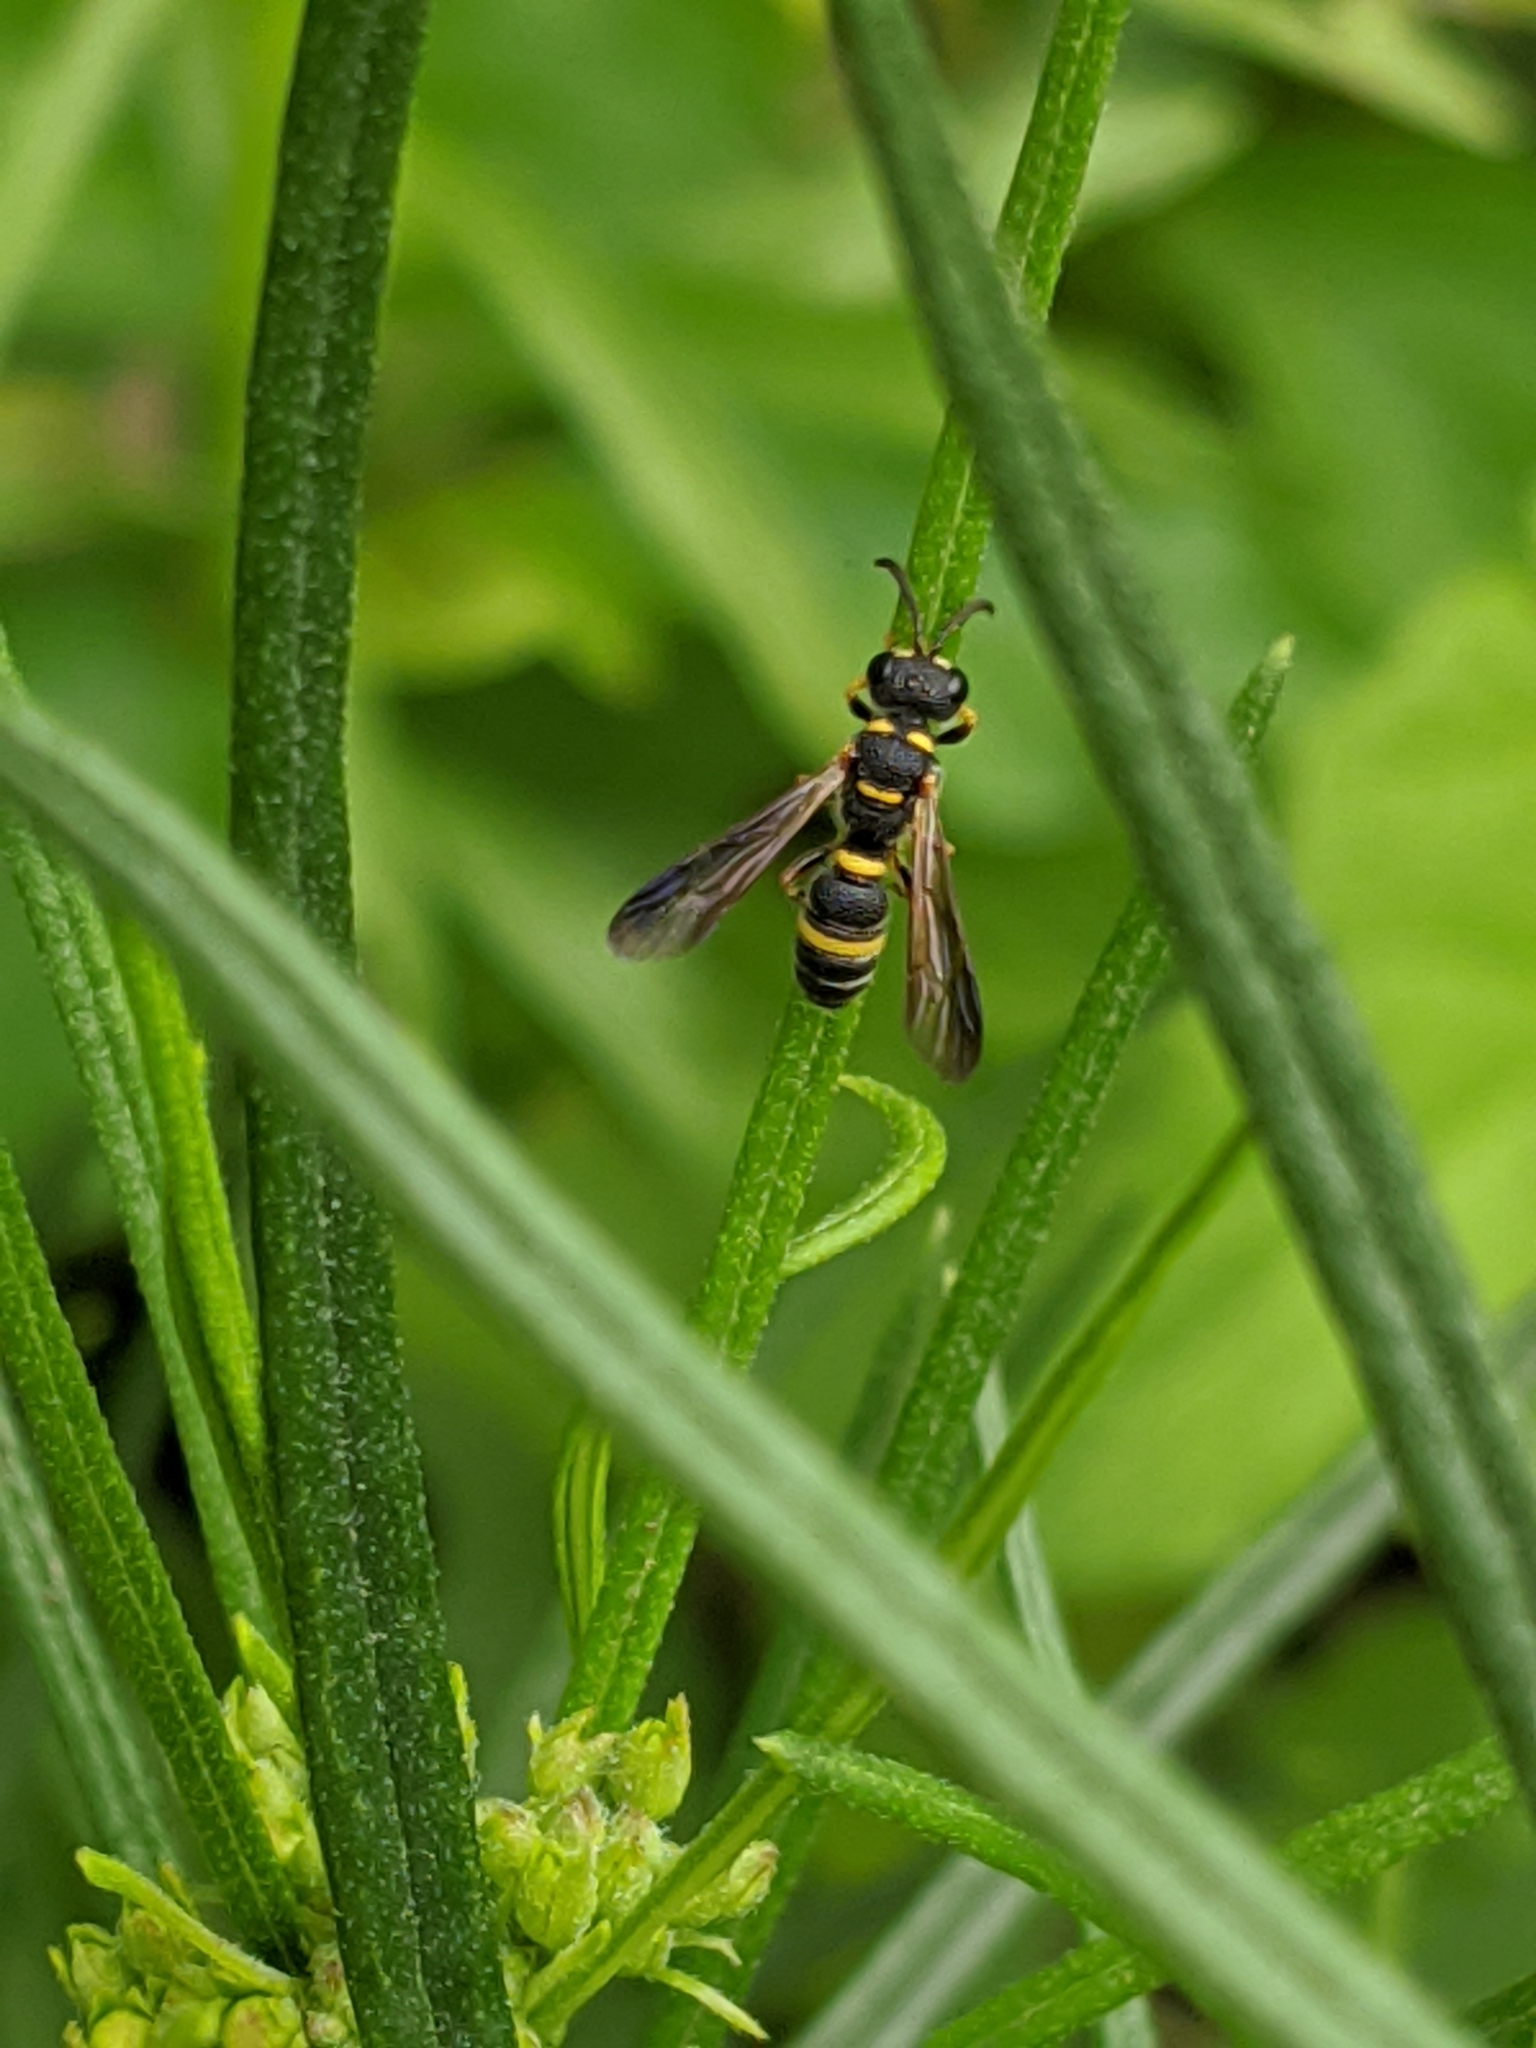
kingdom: Animalia
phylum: Arthropoda
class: Insecta
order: Hymenoptera
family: Crabronidae
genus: Cerceris
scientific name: Cerceris insolita
